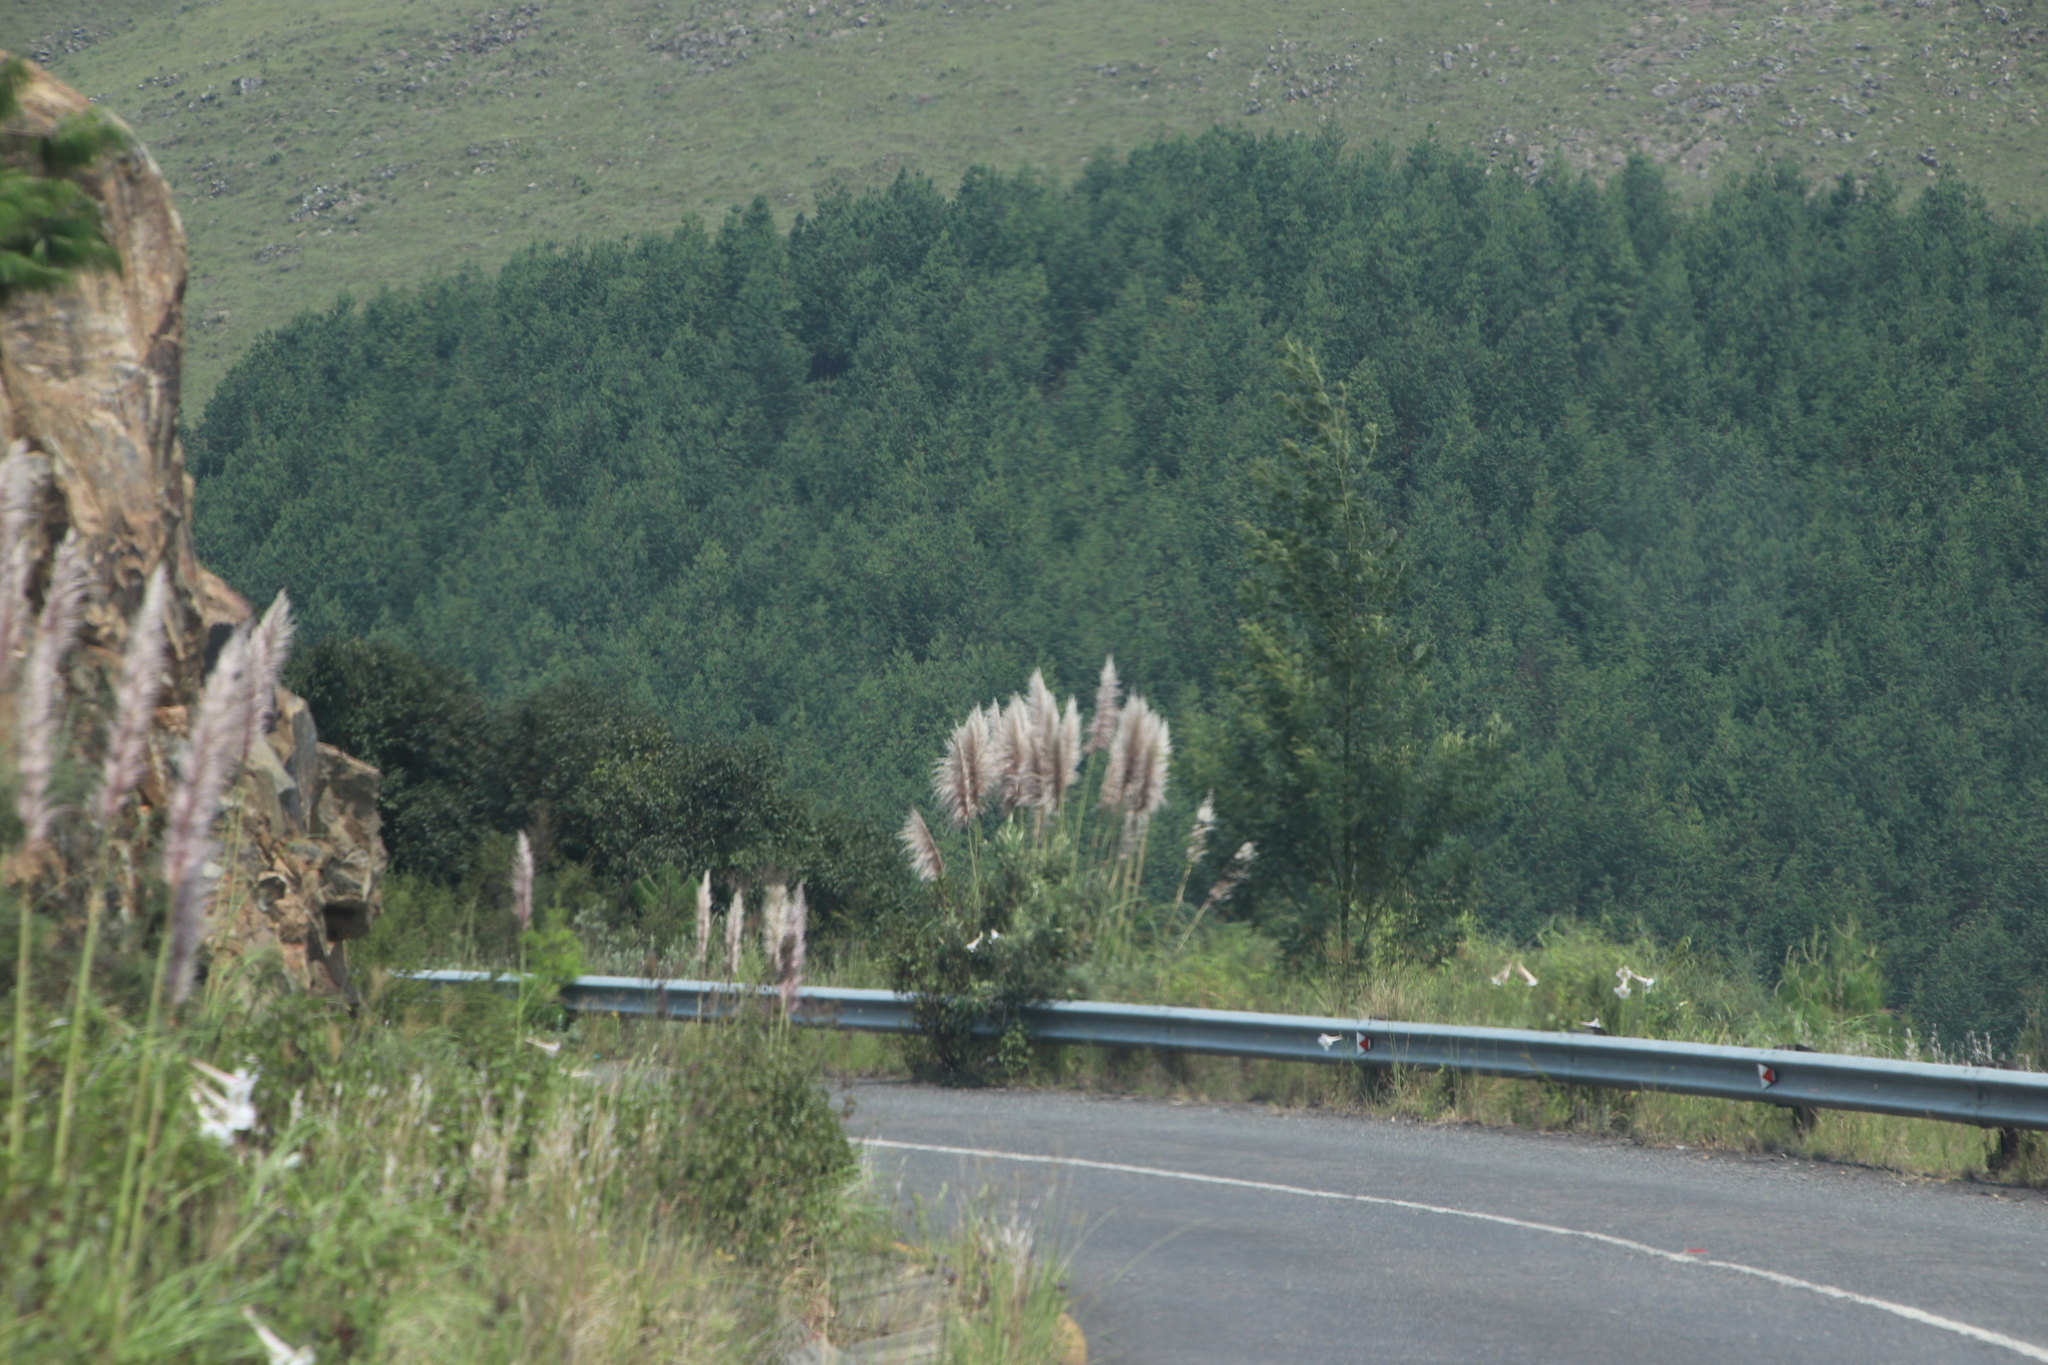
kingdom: Plantae
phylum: Tracheophyta
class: Liliopsida
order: Poales
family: Poaceae
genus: Cortaderia
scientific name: Cortaderia selloana
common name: Uruguayan pampas grass
